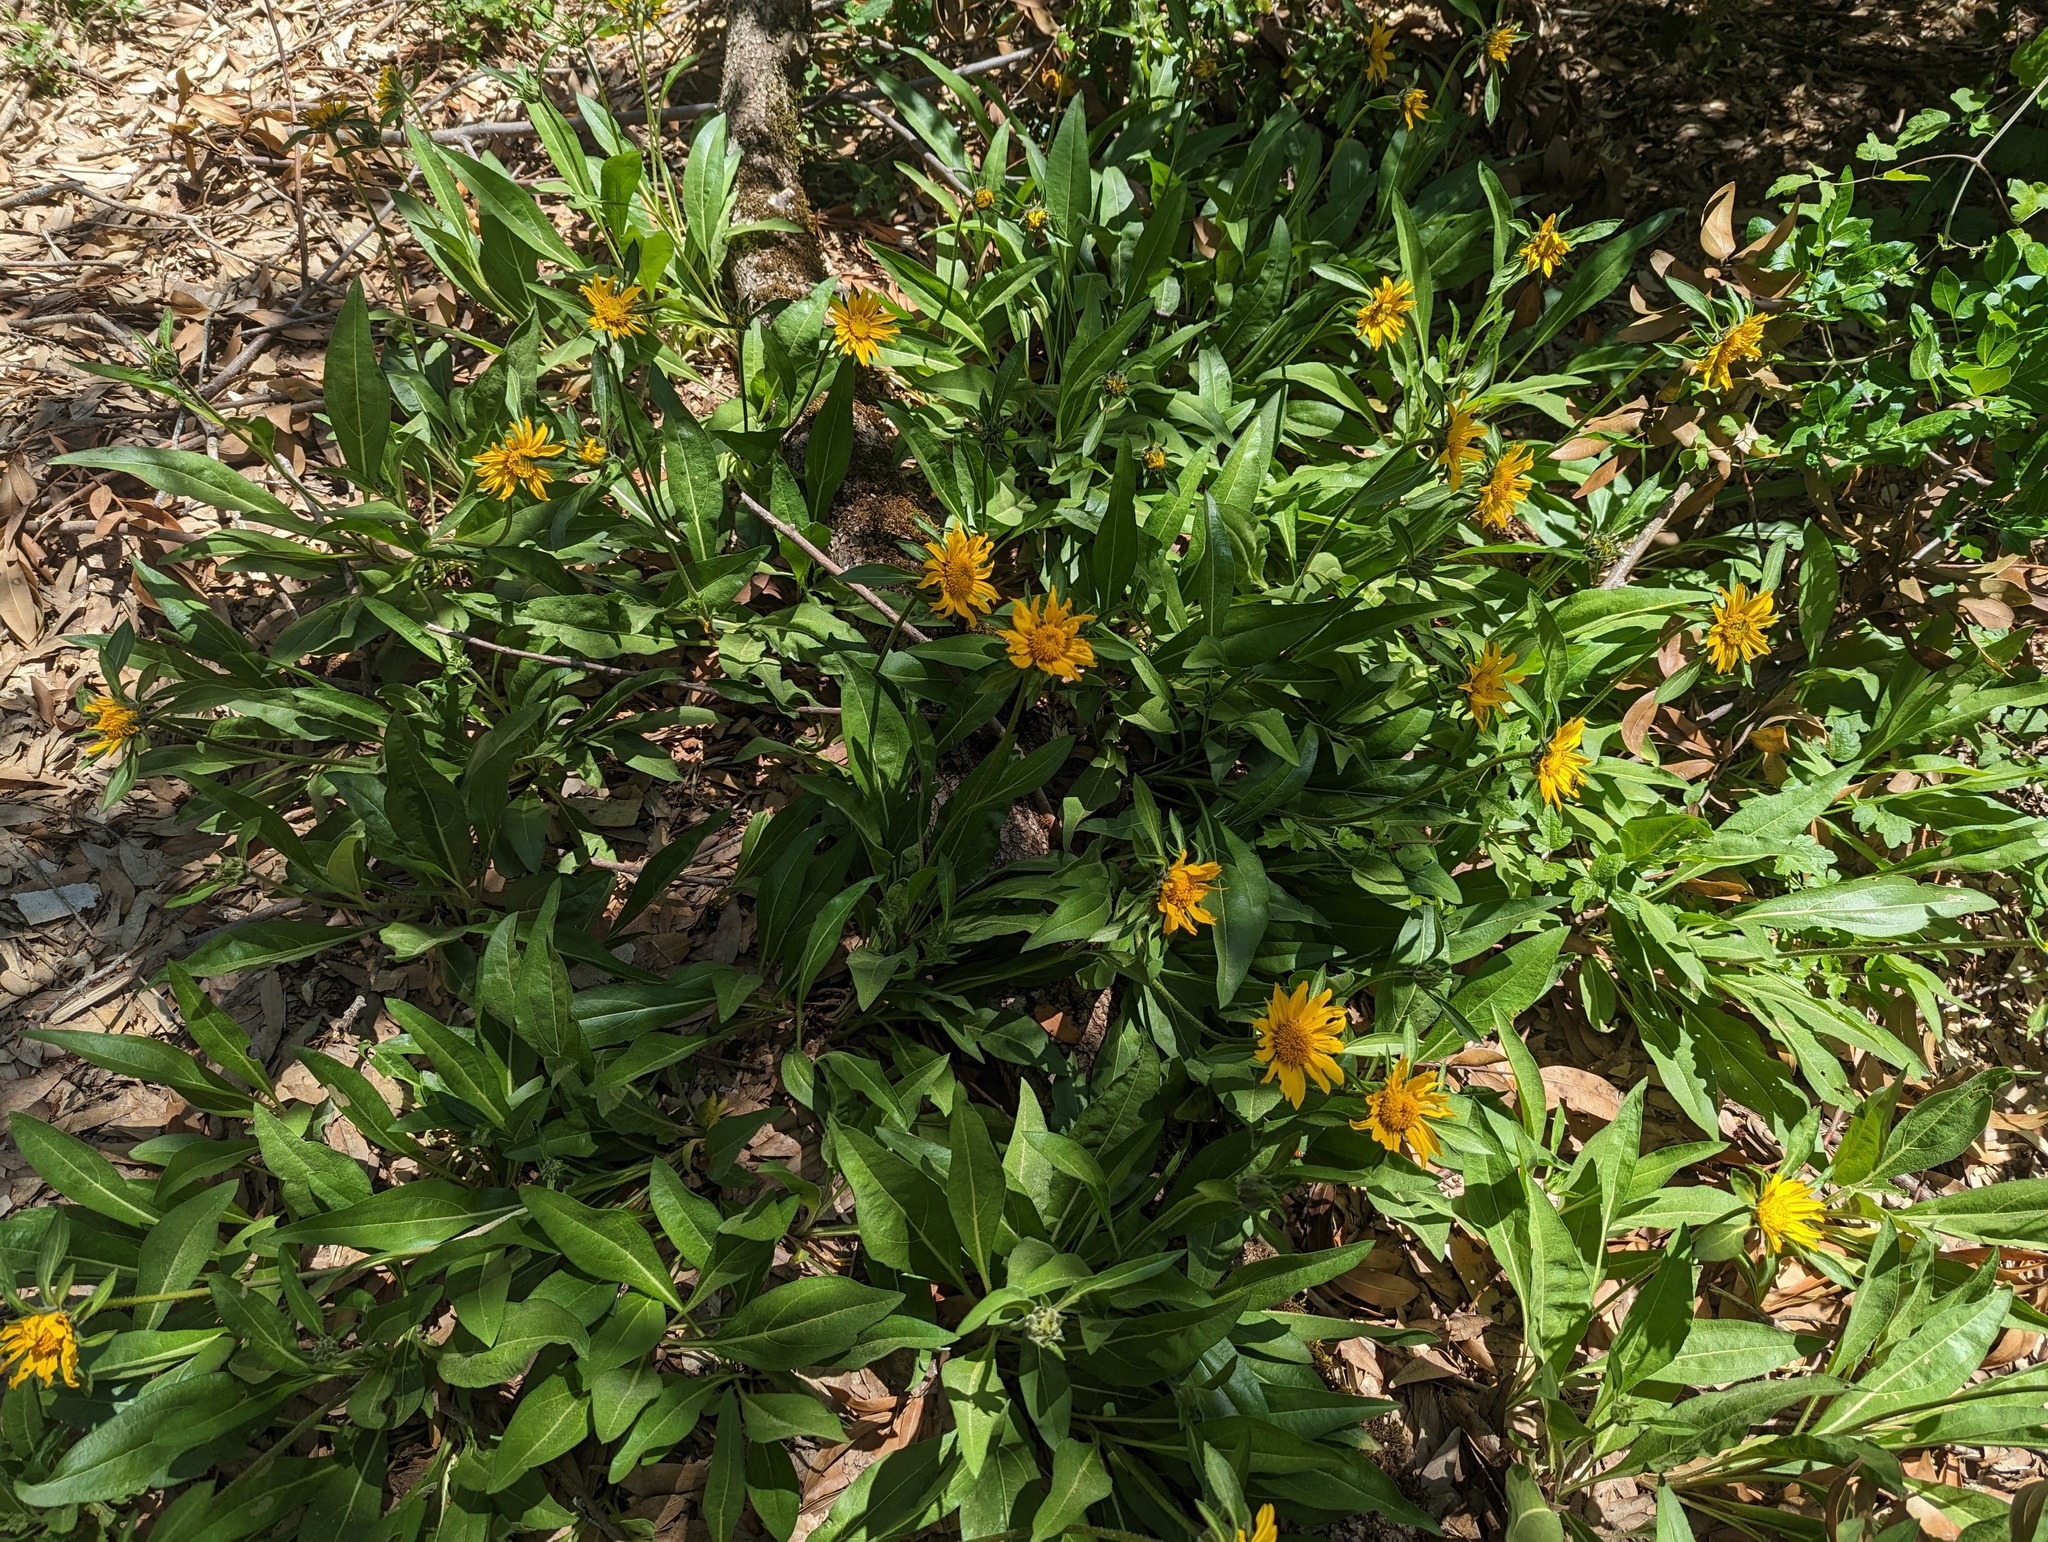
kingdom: Plantae
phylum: Tracheophyta
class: Magnoliopsida
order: Asterales
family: Asteraceae
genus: Helianthella
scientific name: Helianthella castanea
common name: Diablo helianthella
